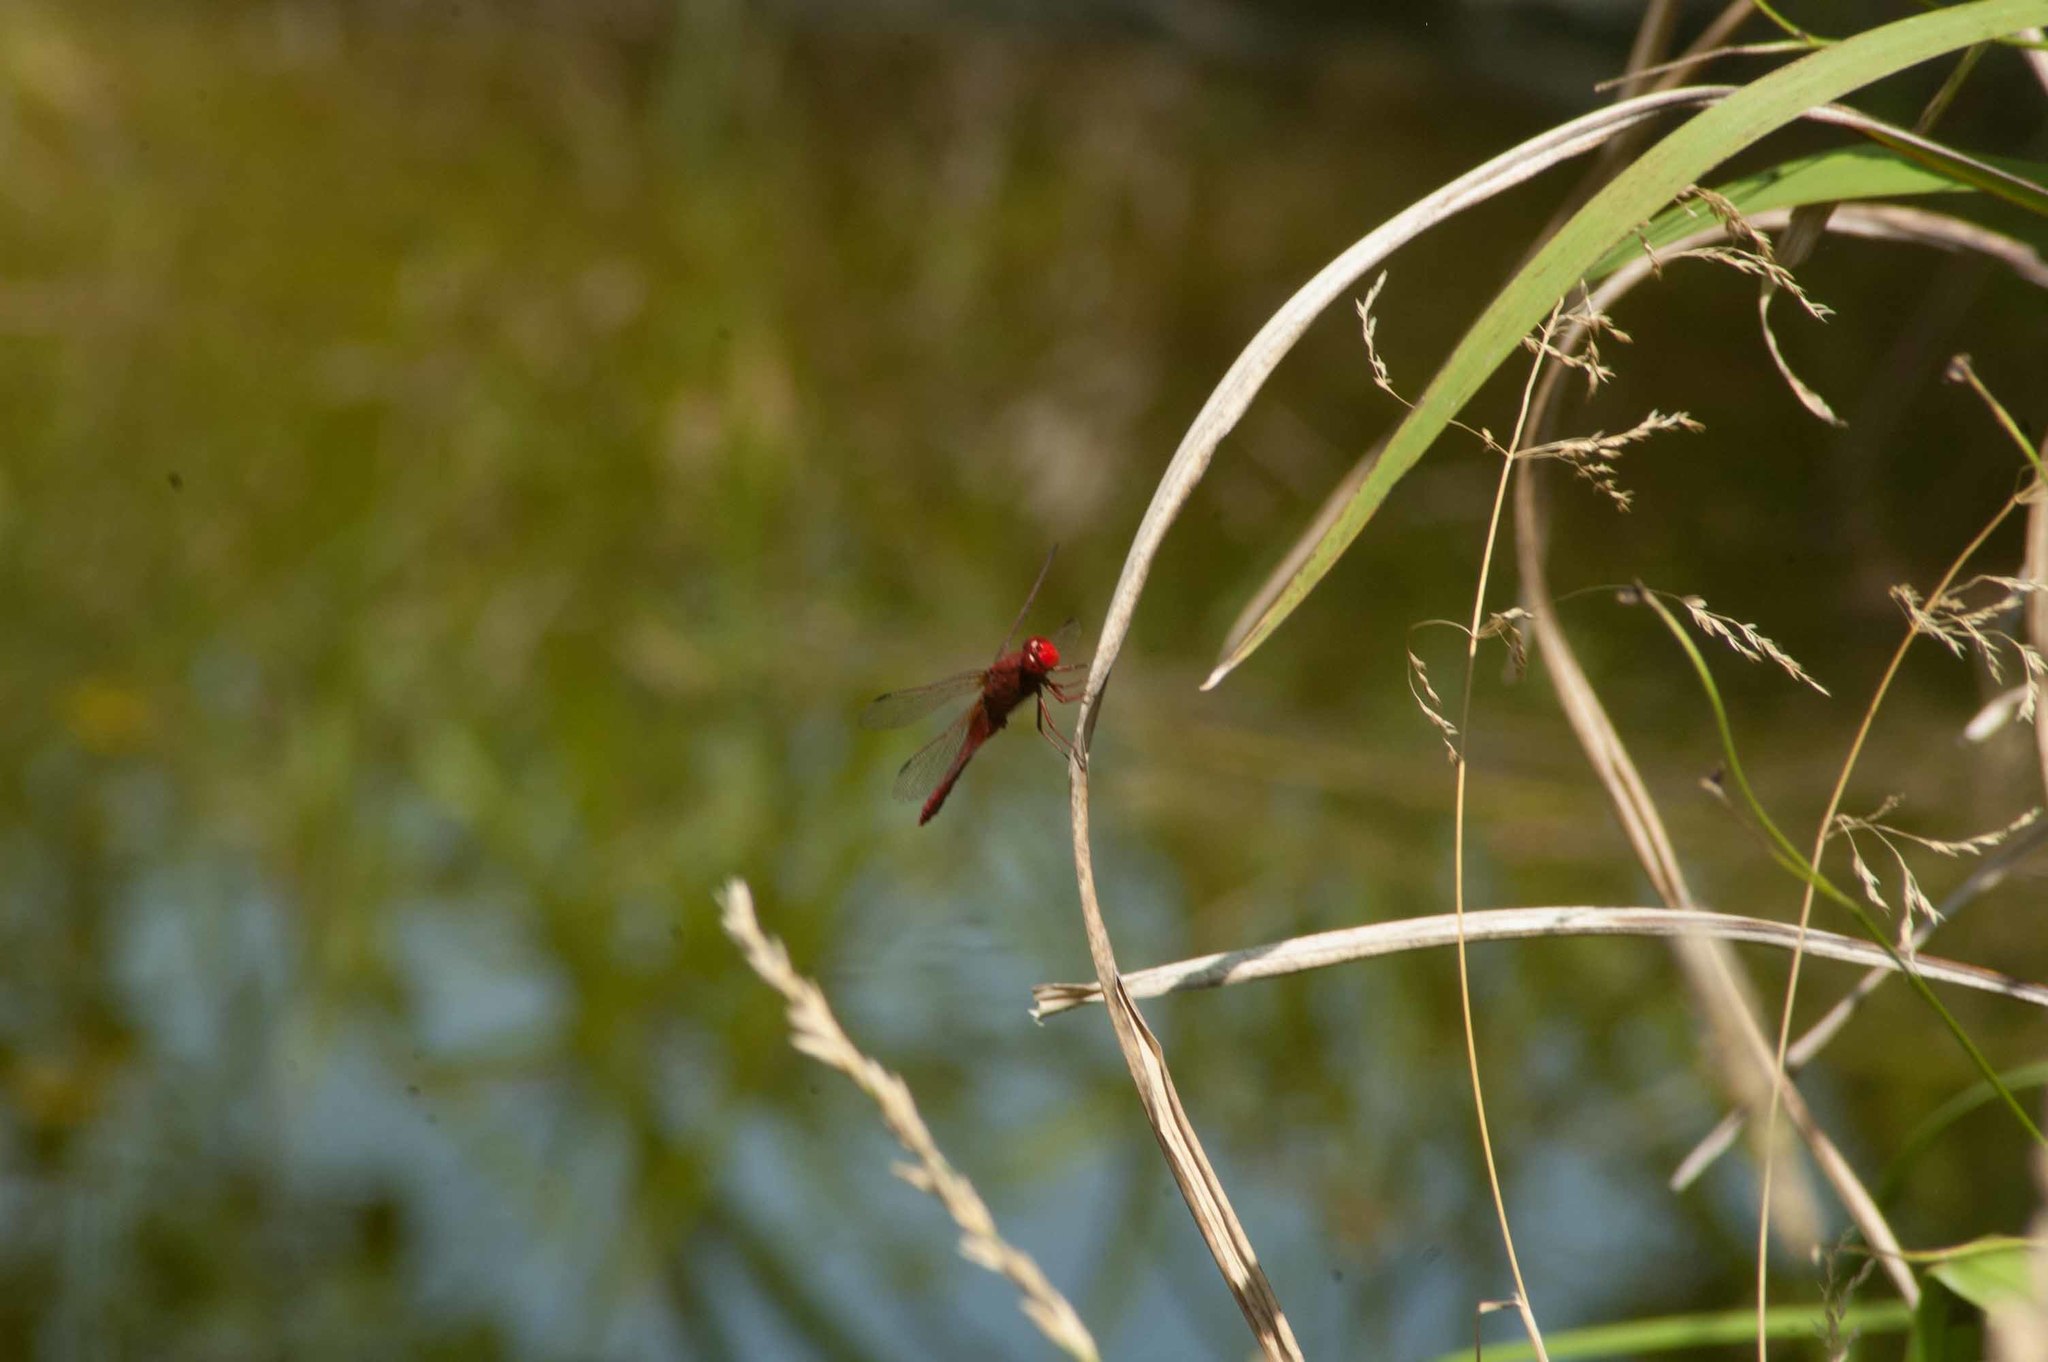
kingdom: Animalia
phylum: Arthropoda
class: Insecta
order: Odonata
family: Libellulidae
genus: Crocothemis
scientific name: Crocothemis erythraea
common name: Scarlet dragonfly
